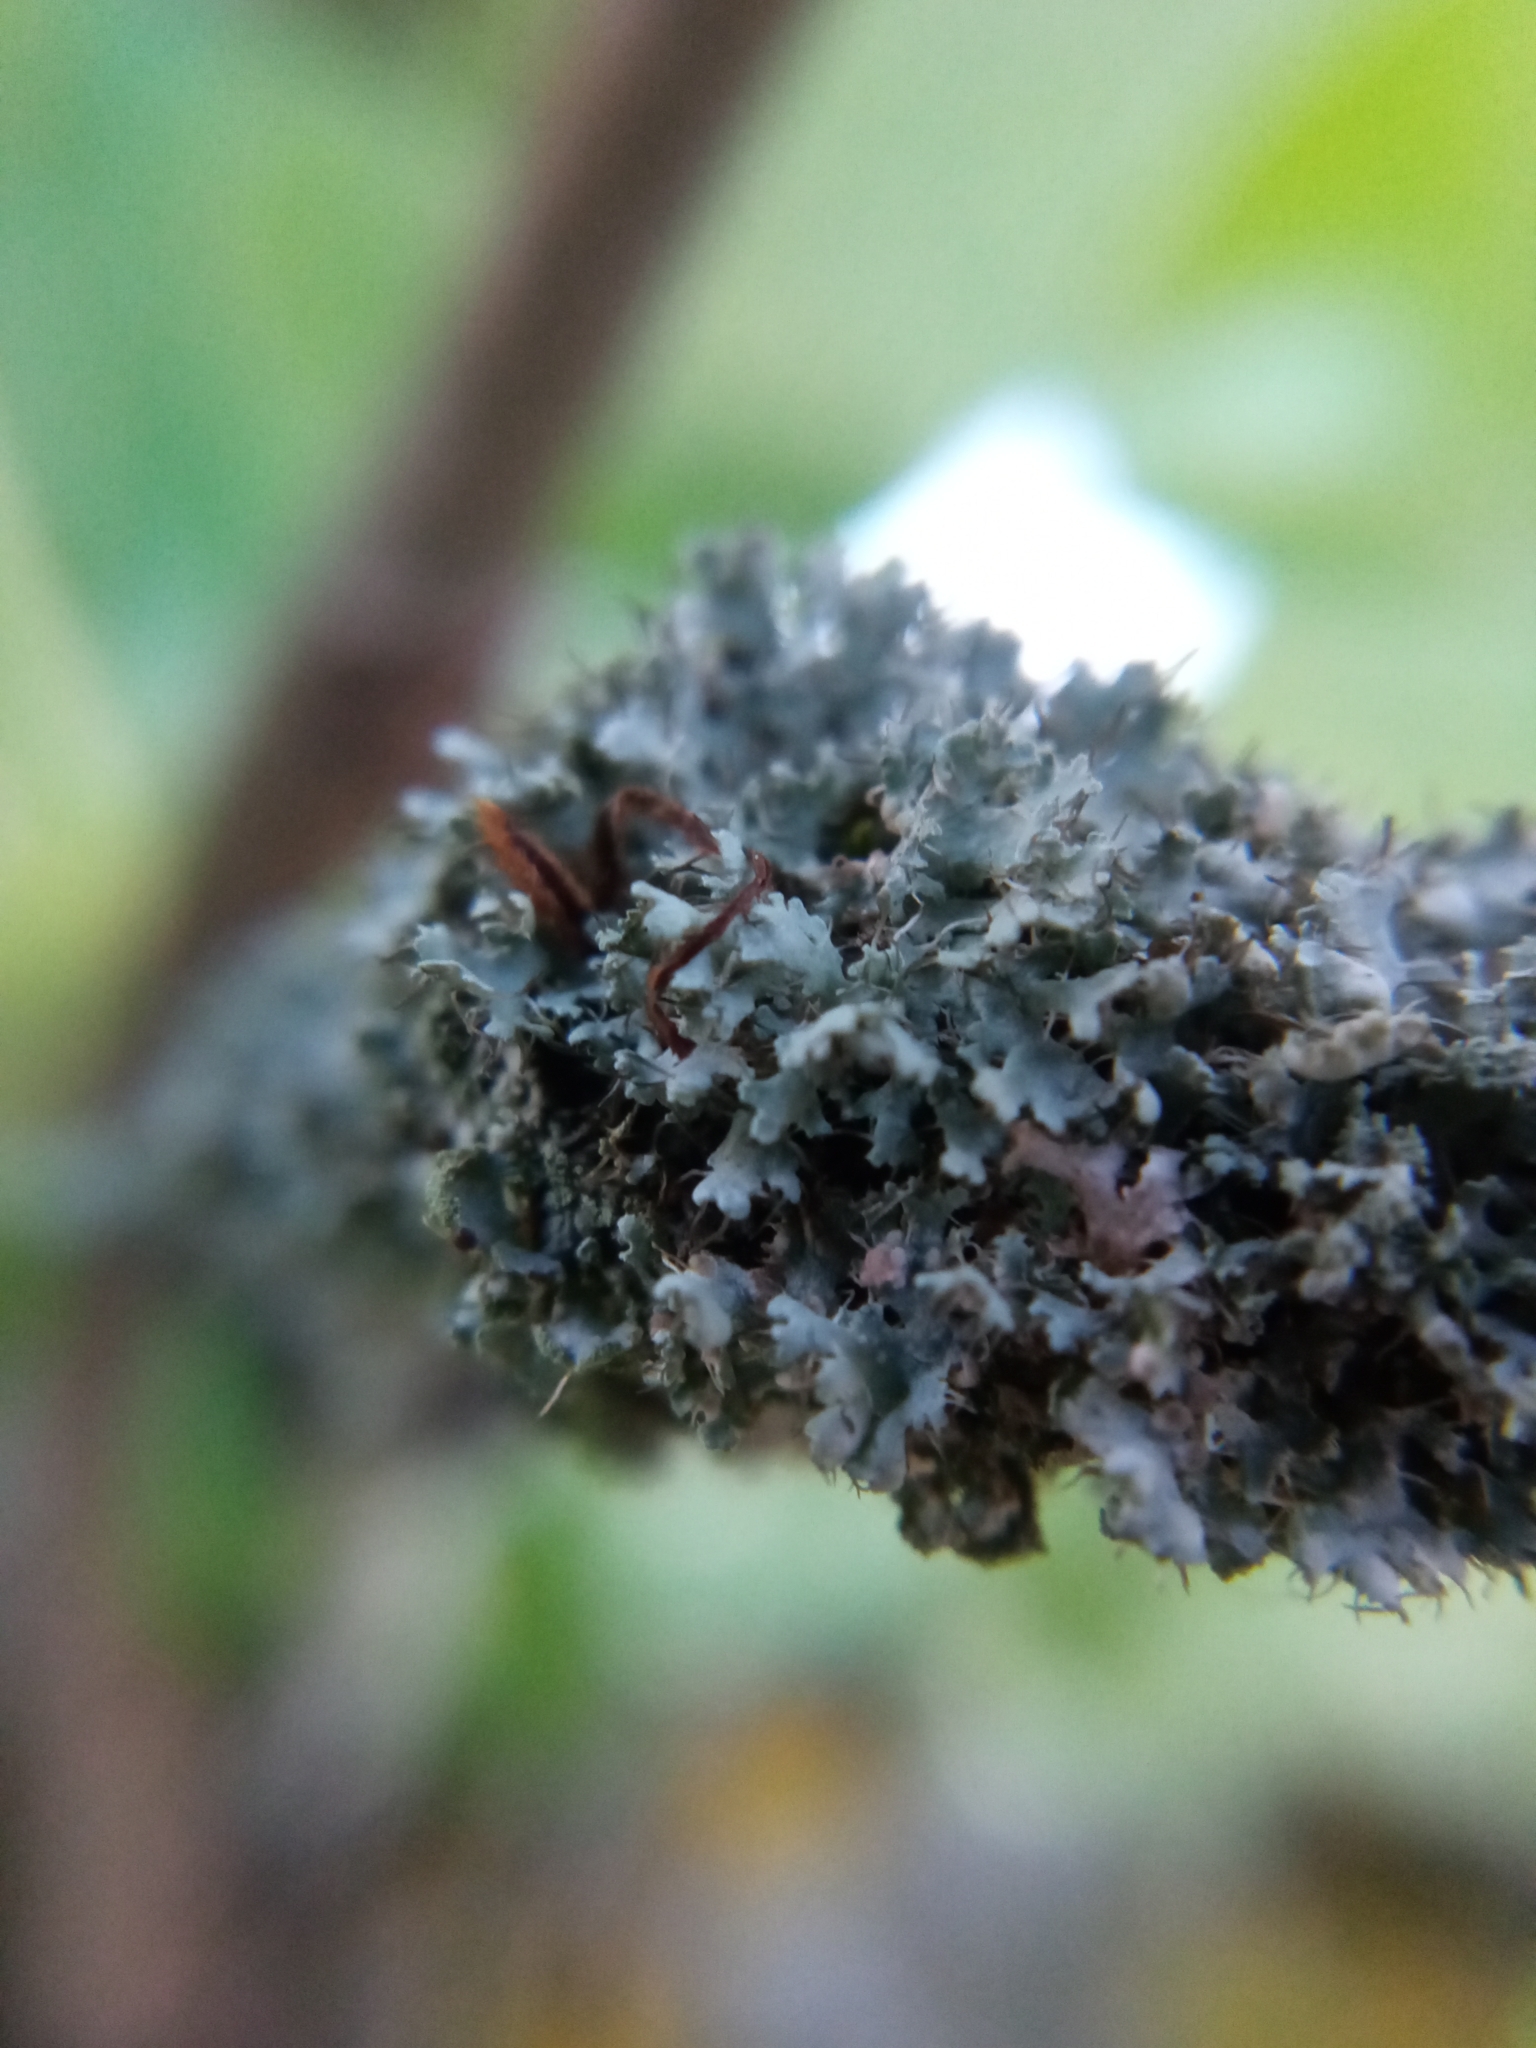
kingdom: Fungi
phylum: Ascomycota
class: Lecanoromycetes
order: Caliciales
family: Physciaceae
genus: Physcia
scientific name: Physcia adscendens
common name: Hooded rosette lichen
